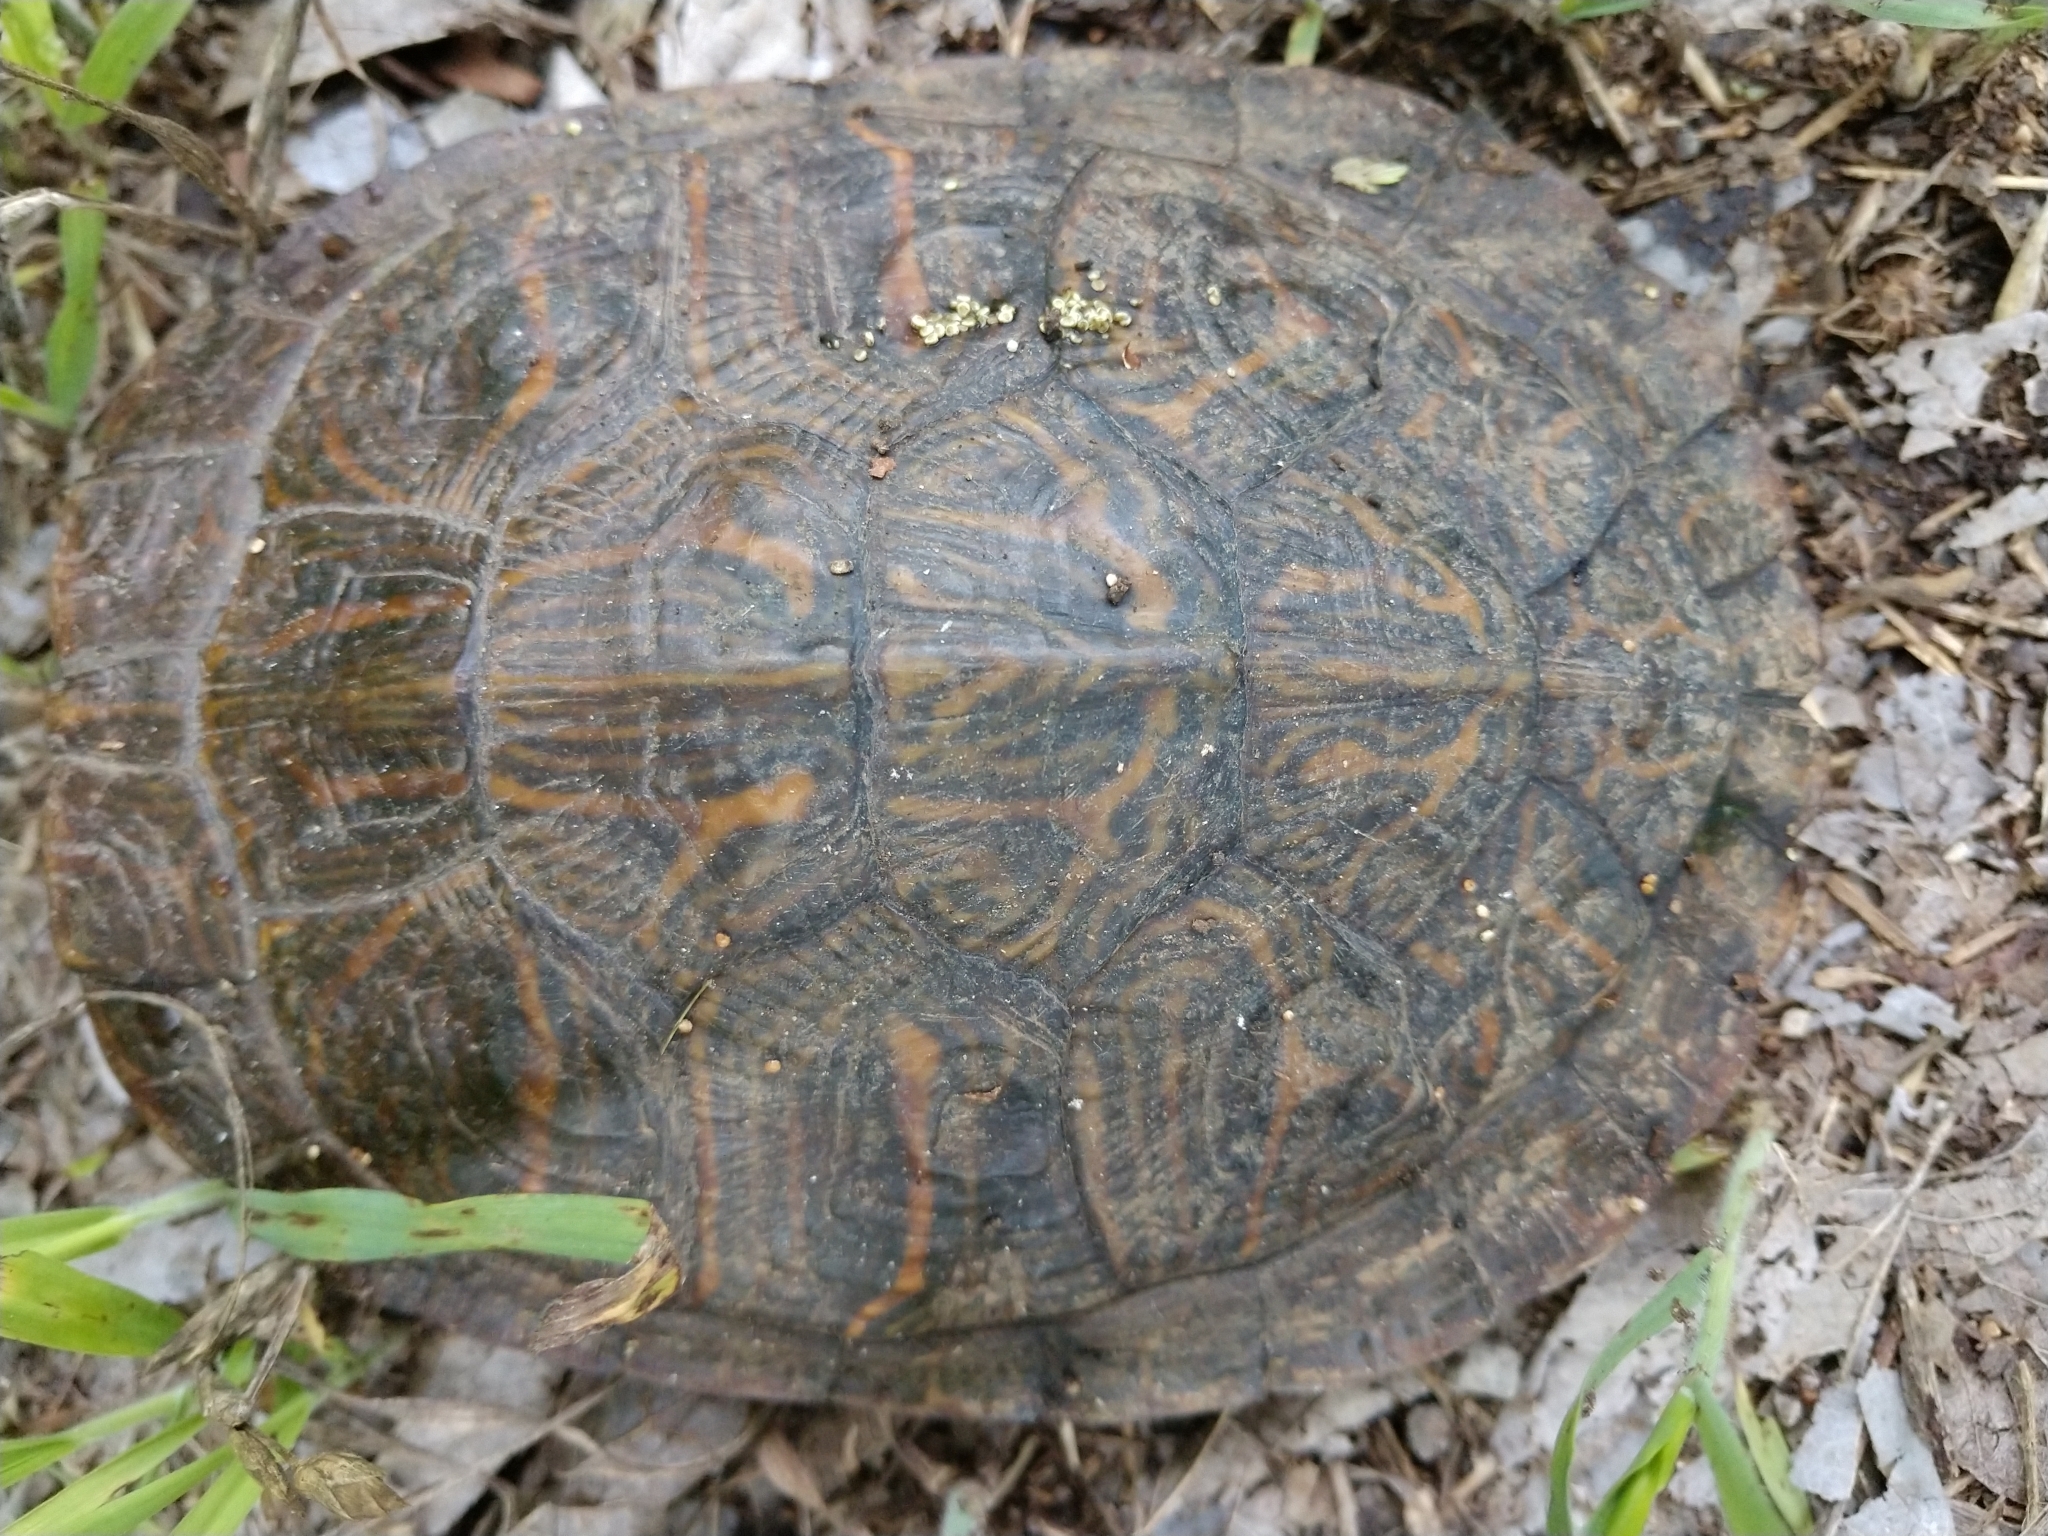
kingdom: Animalia
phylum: Chordata
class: Testudines
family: Emydidae
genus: Trachemys
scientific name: Trachemys scripta
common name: Slider
